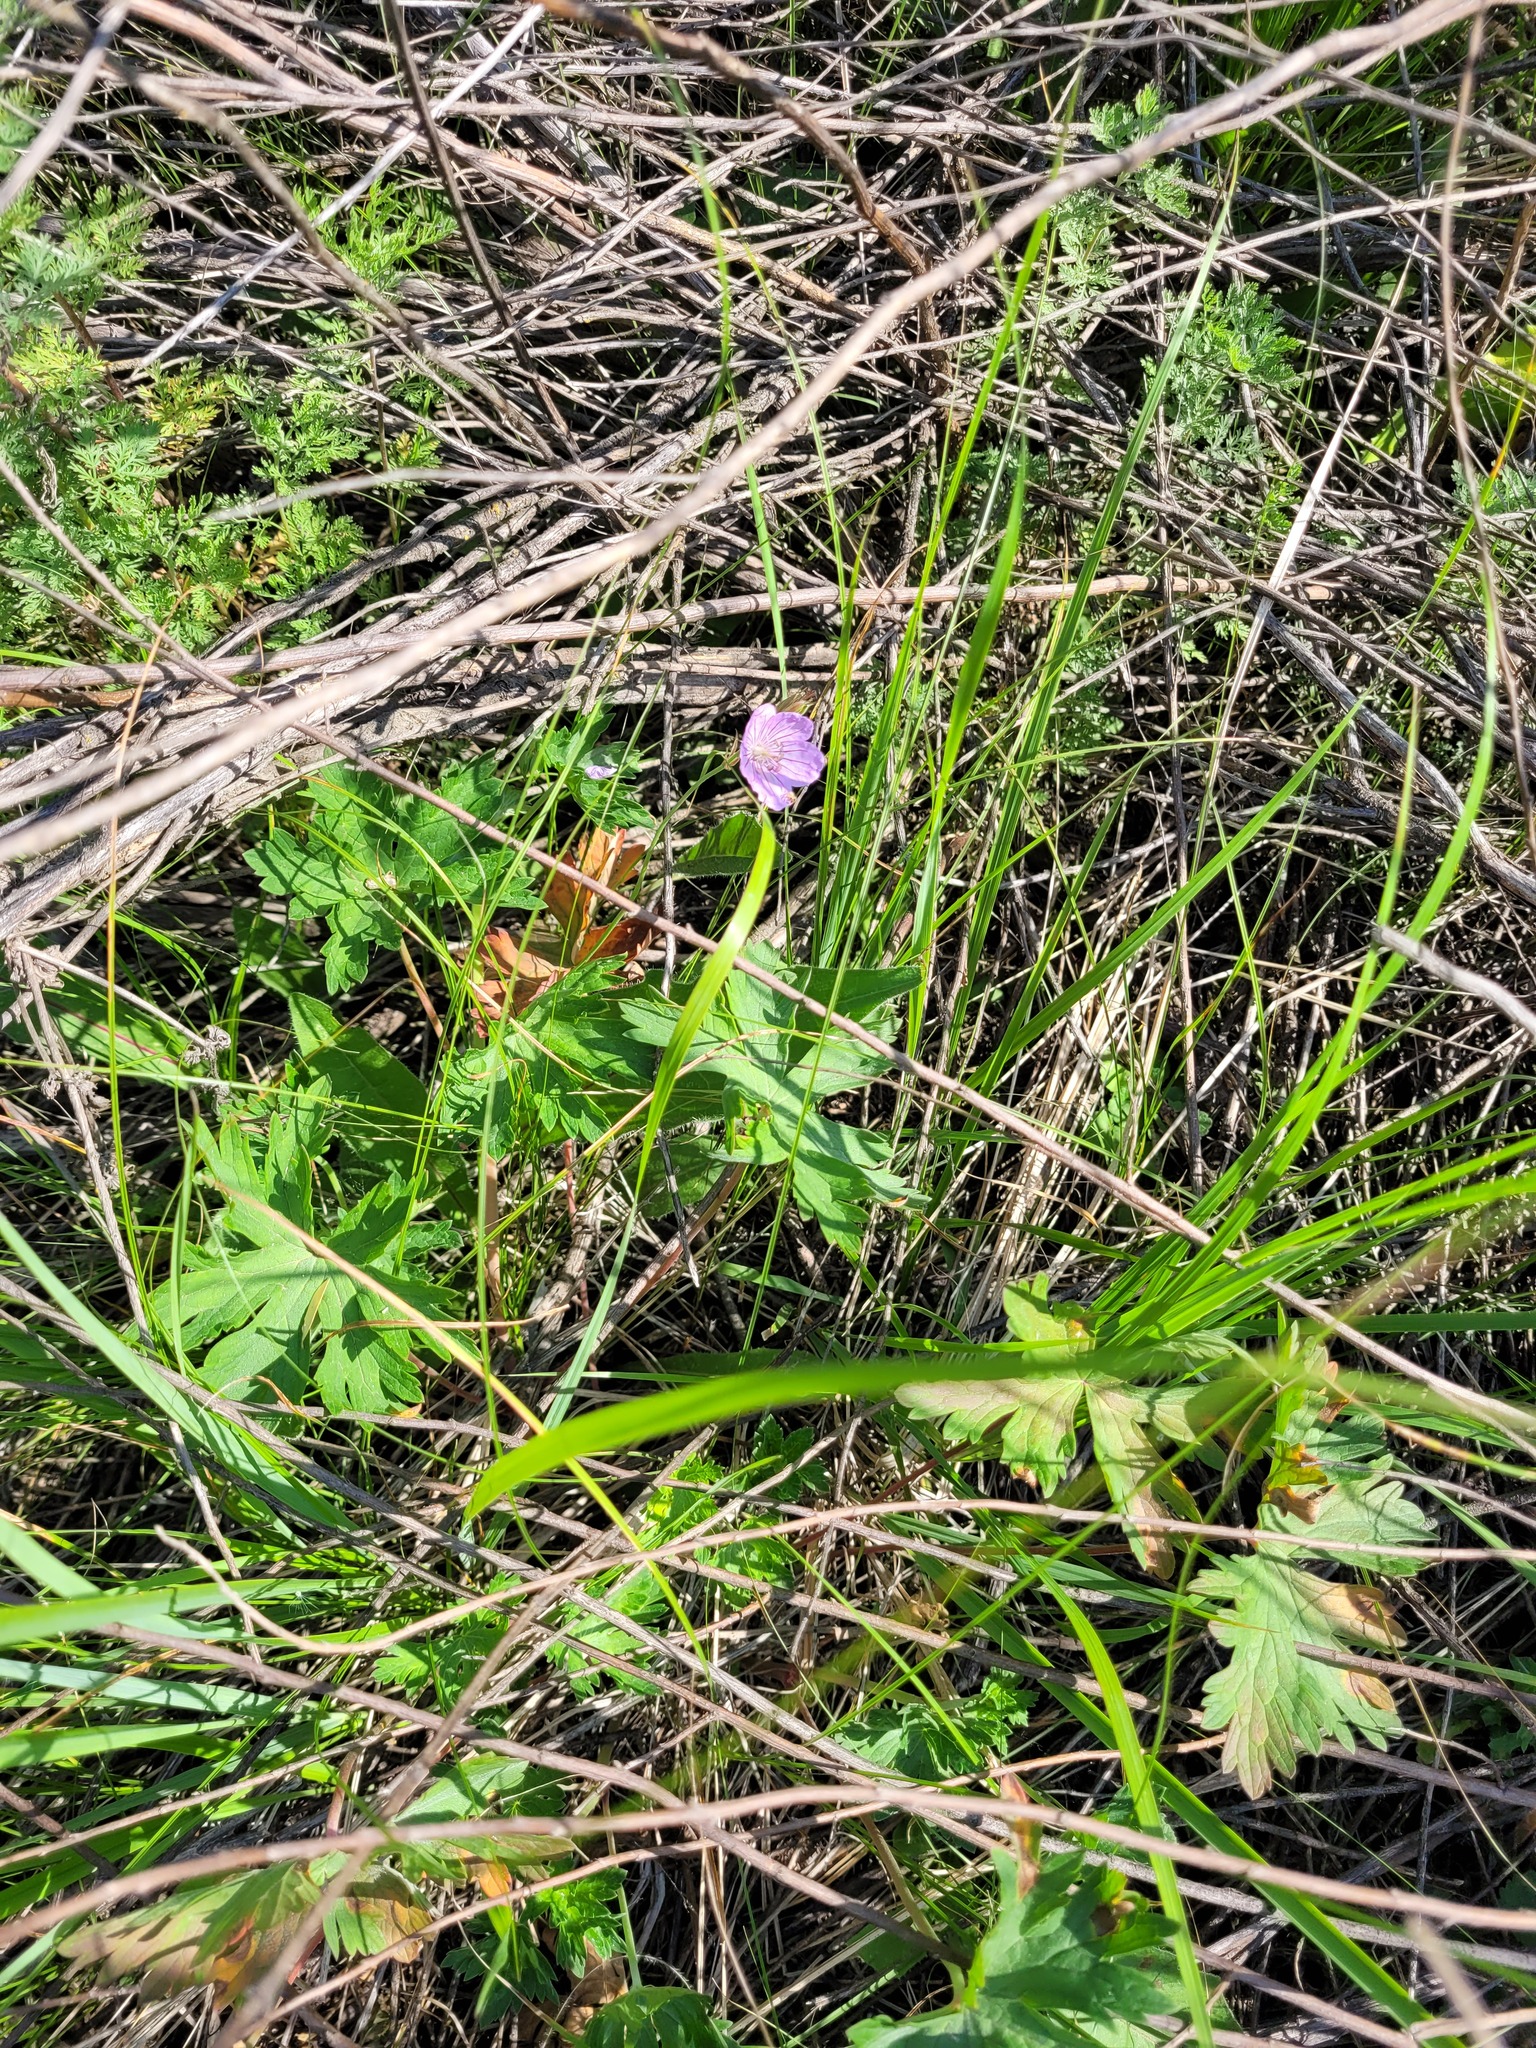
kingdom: Plantae
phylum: Tracheophyta
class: Magnoliopsida
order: Geraniales
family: Geraniaceae
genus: Geranium
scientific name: Geranium collinum
